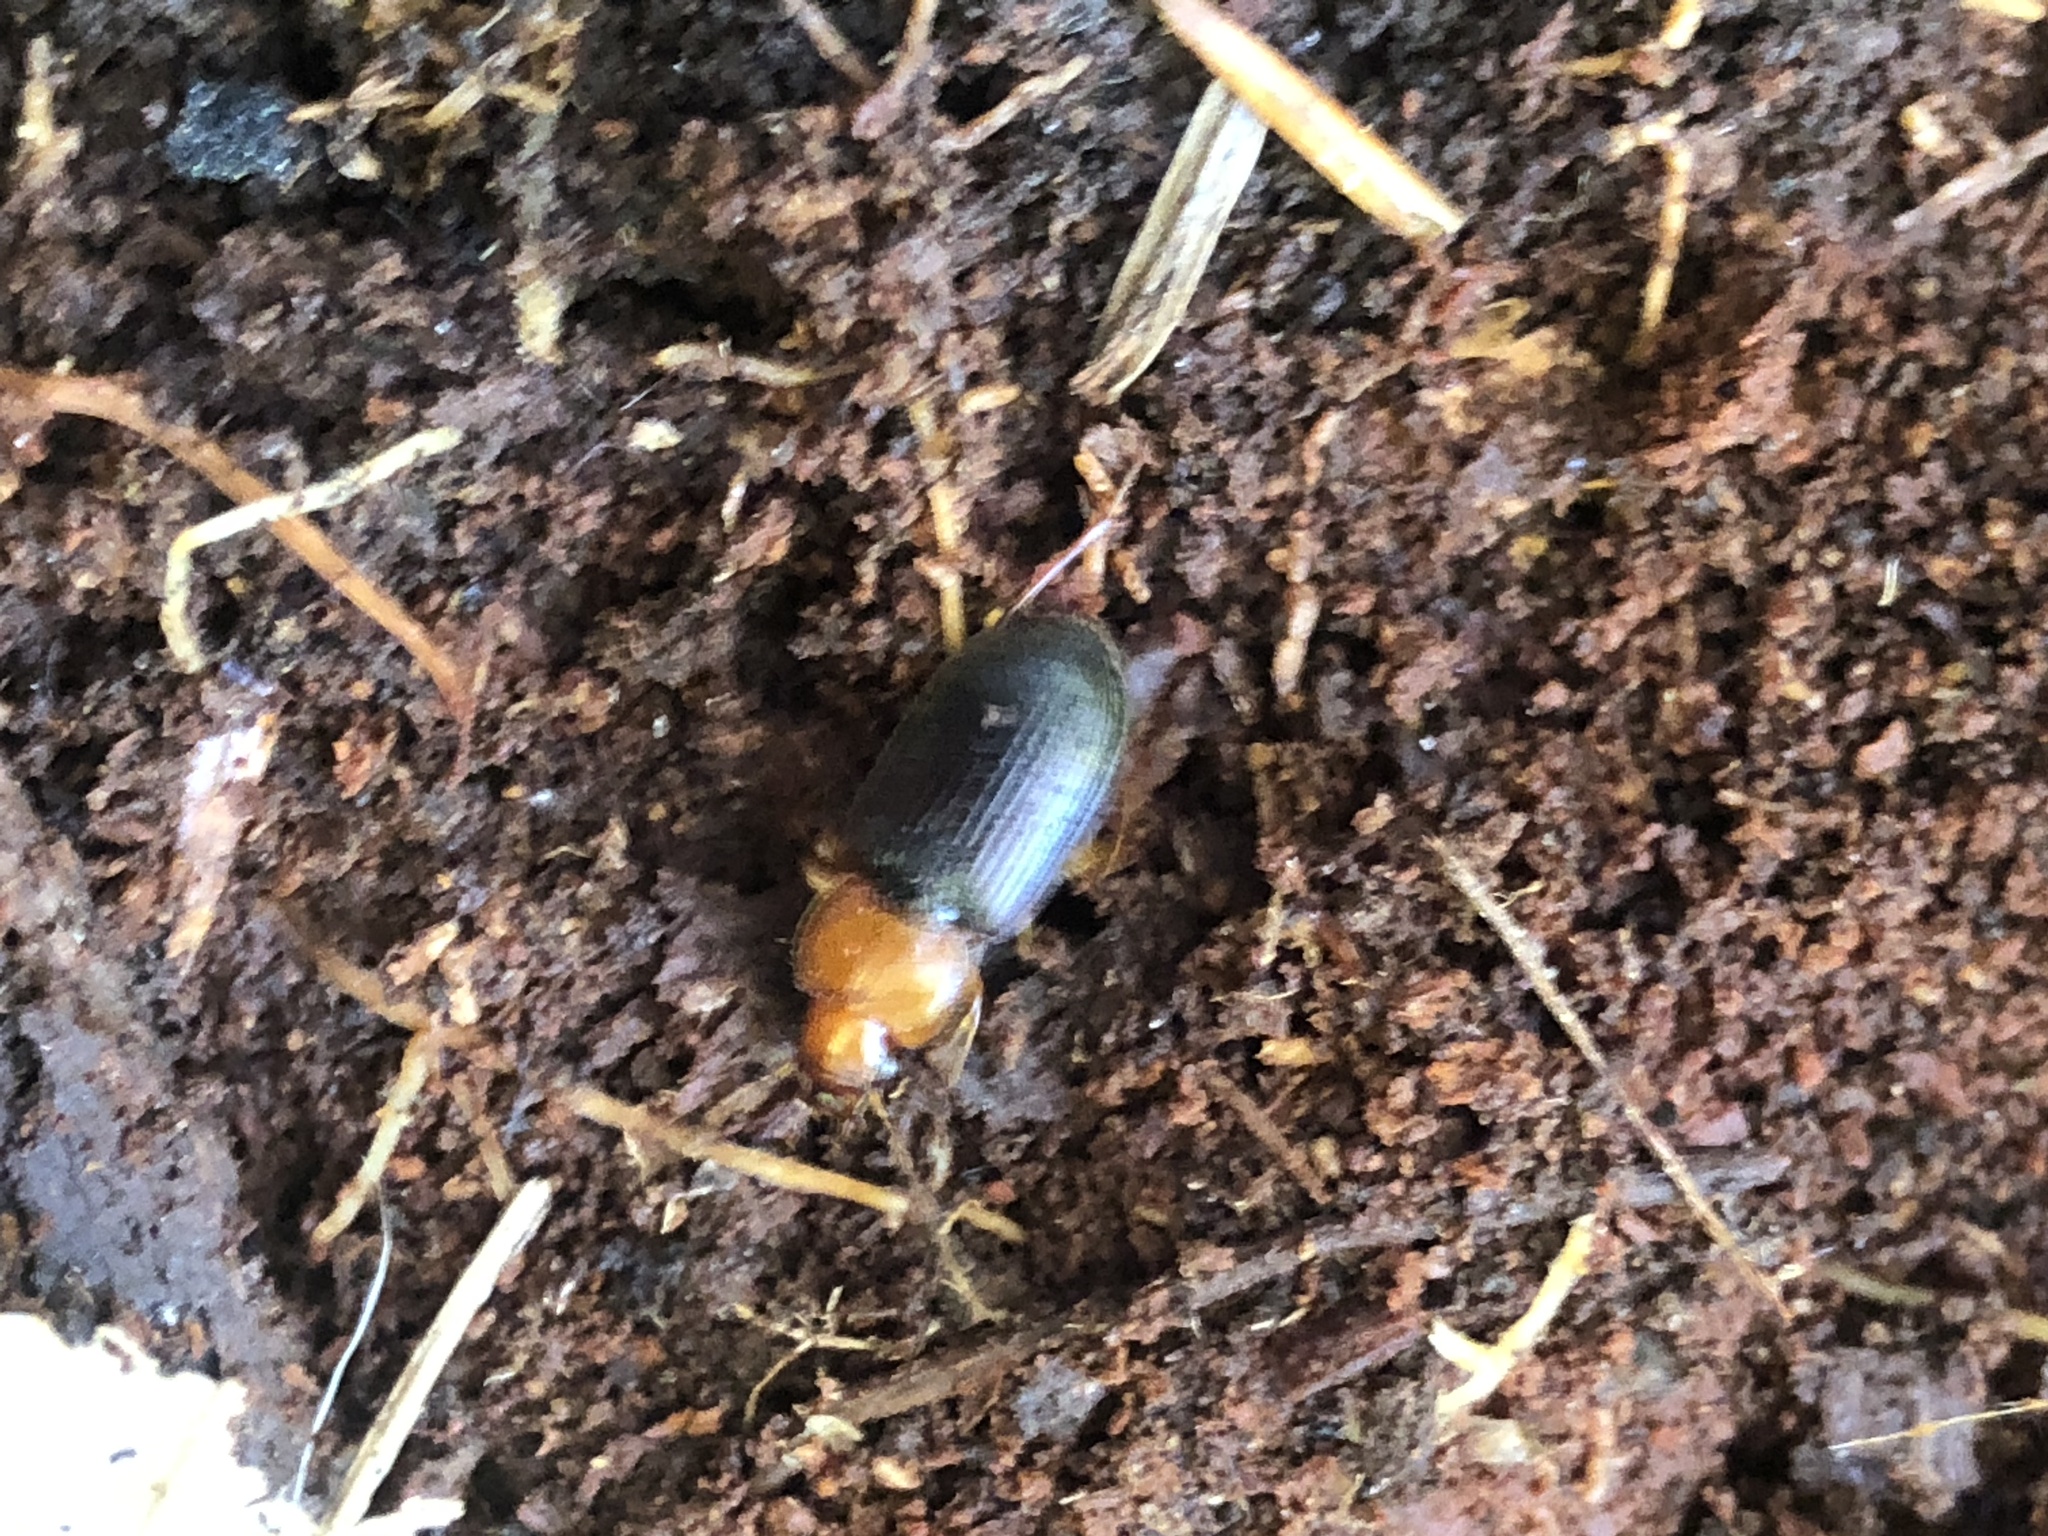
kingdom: Animalia
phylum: Arthropoda
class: Insecta
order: Coleoptera
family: Carabidae
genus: Amphasia
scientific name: Amphasia interstitialis
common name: Red-headed ground beetle
